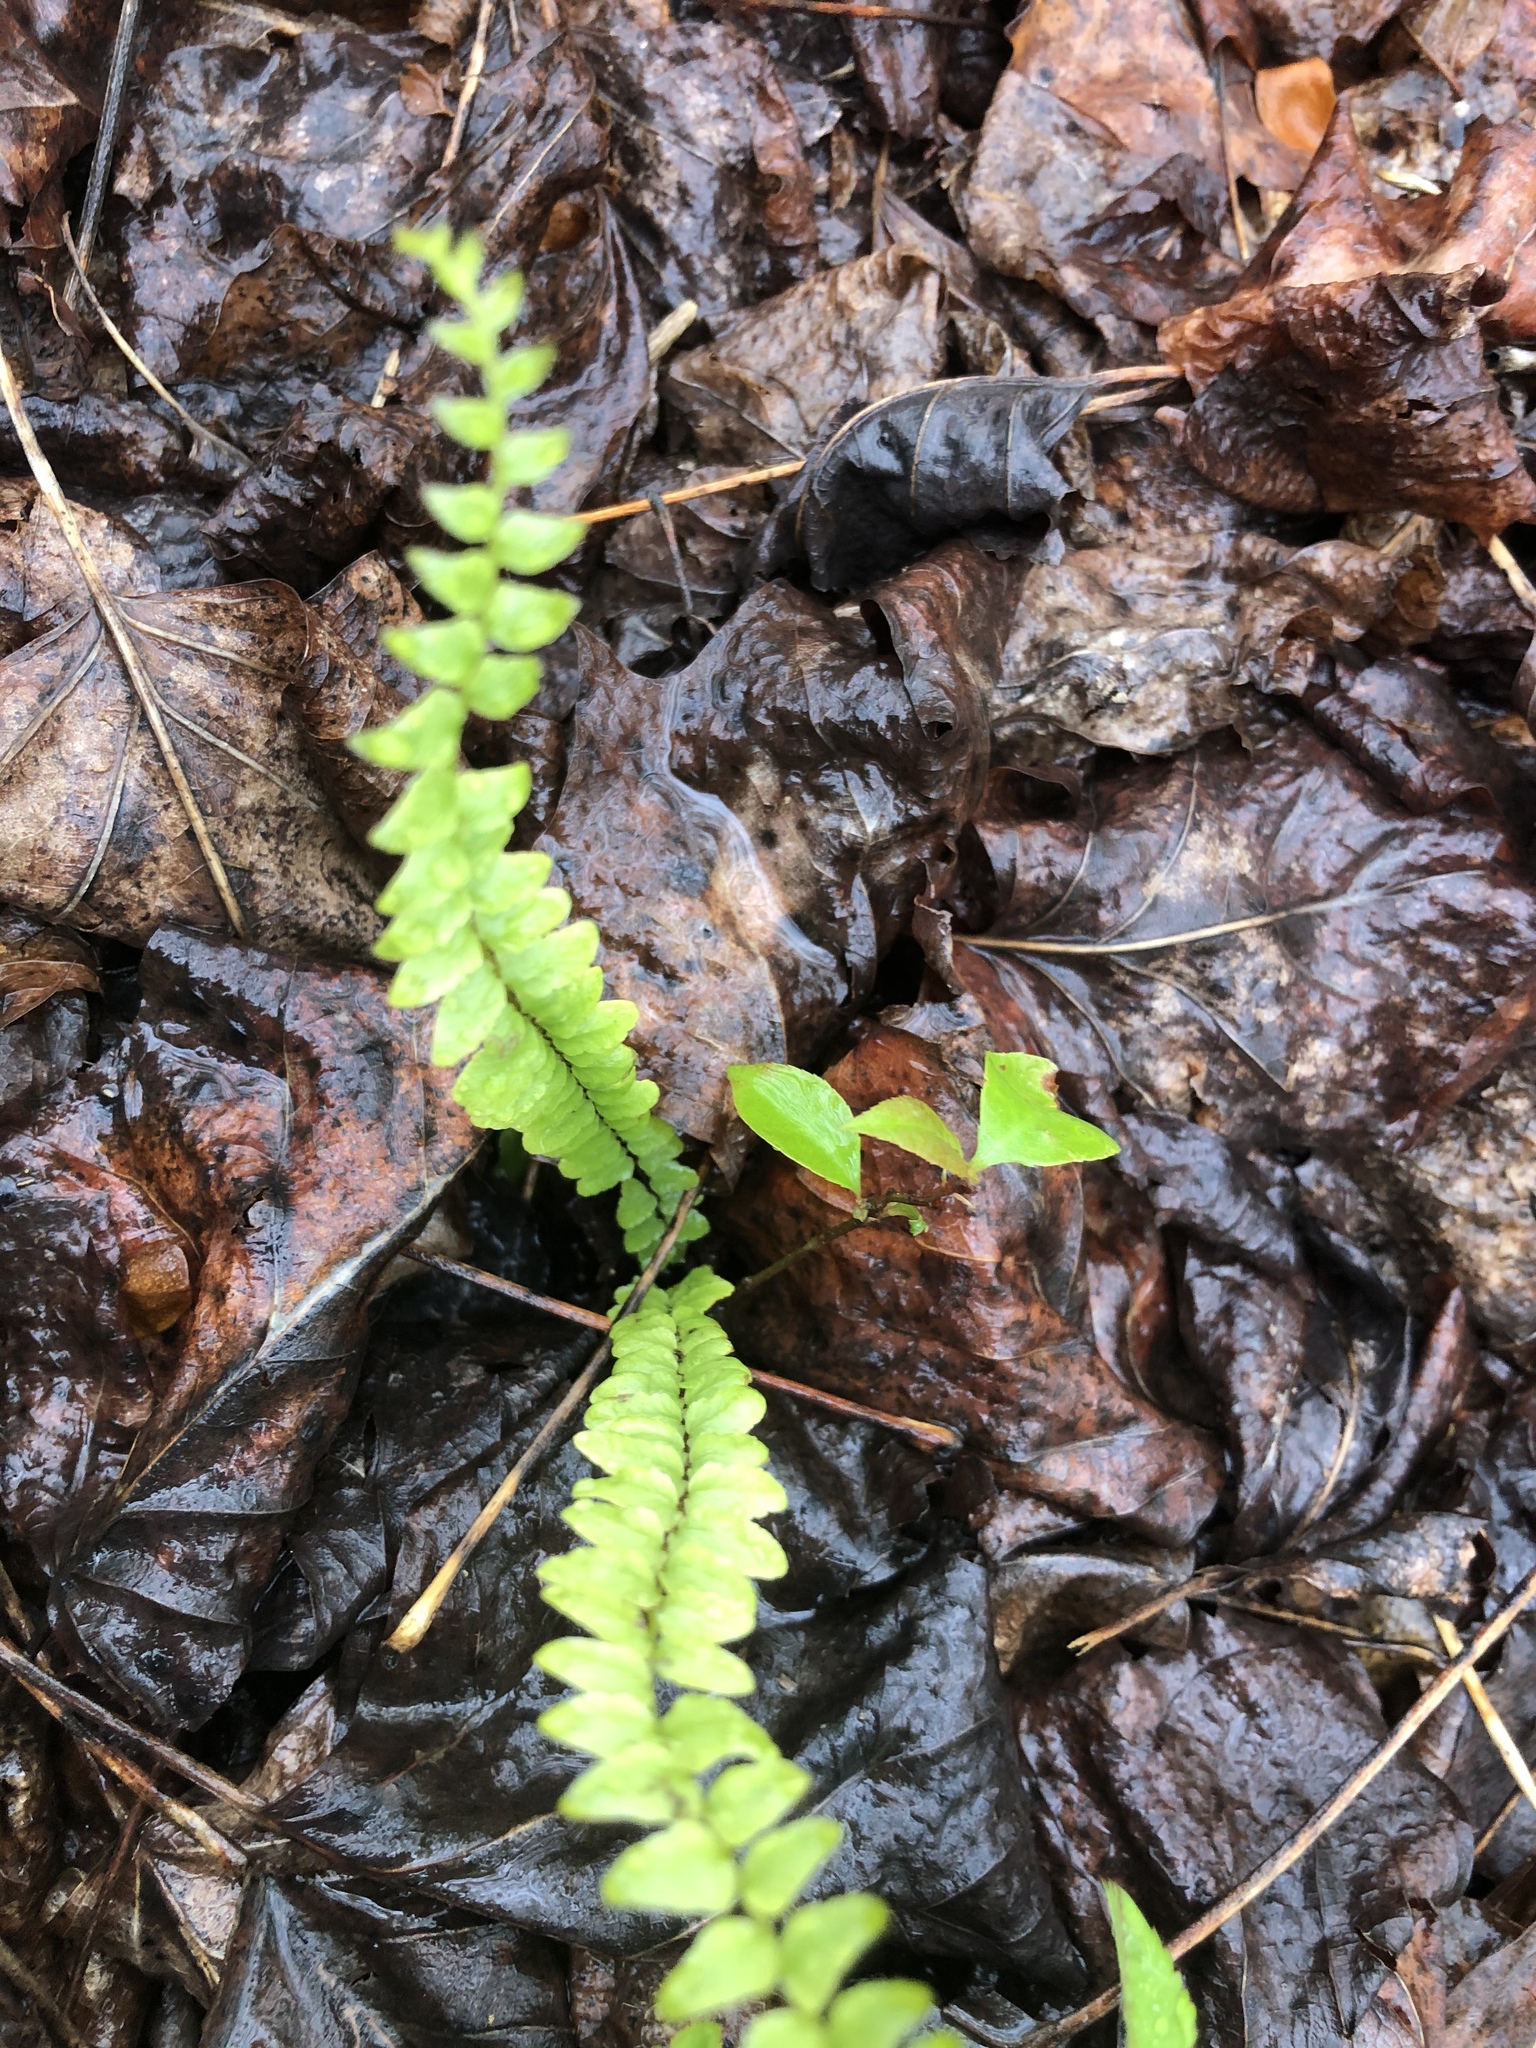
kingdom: Plantae
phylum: Tracheophyta
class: Polypodiopsida
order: Polypodiales
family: Aspleniaceae
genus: Asplenium
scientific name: Asplenium platyneuron
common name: Ebony spleenwort
